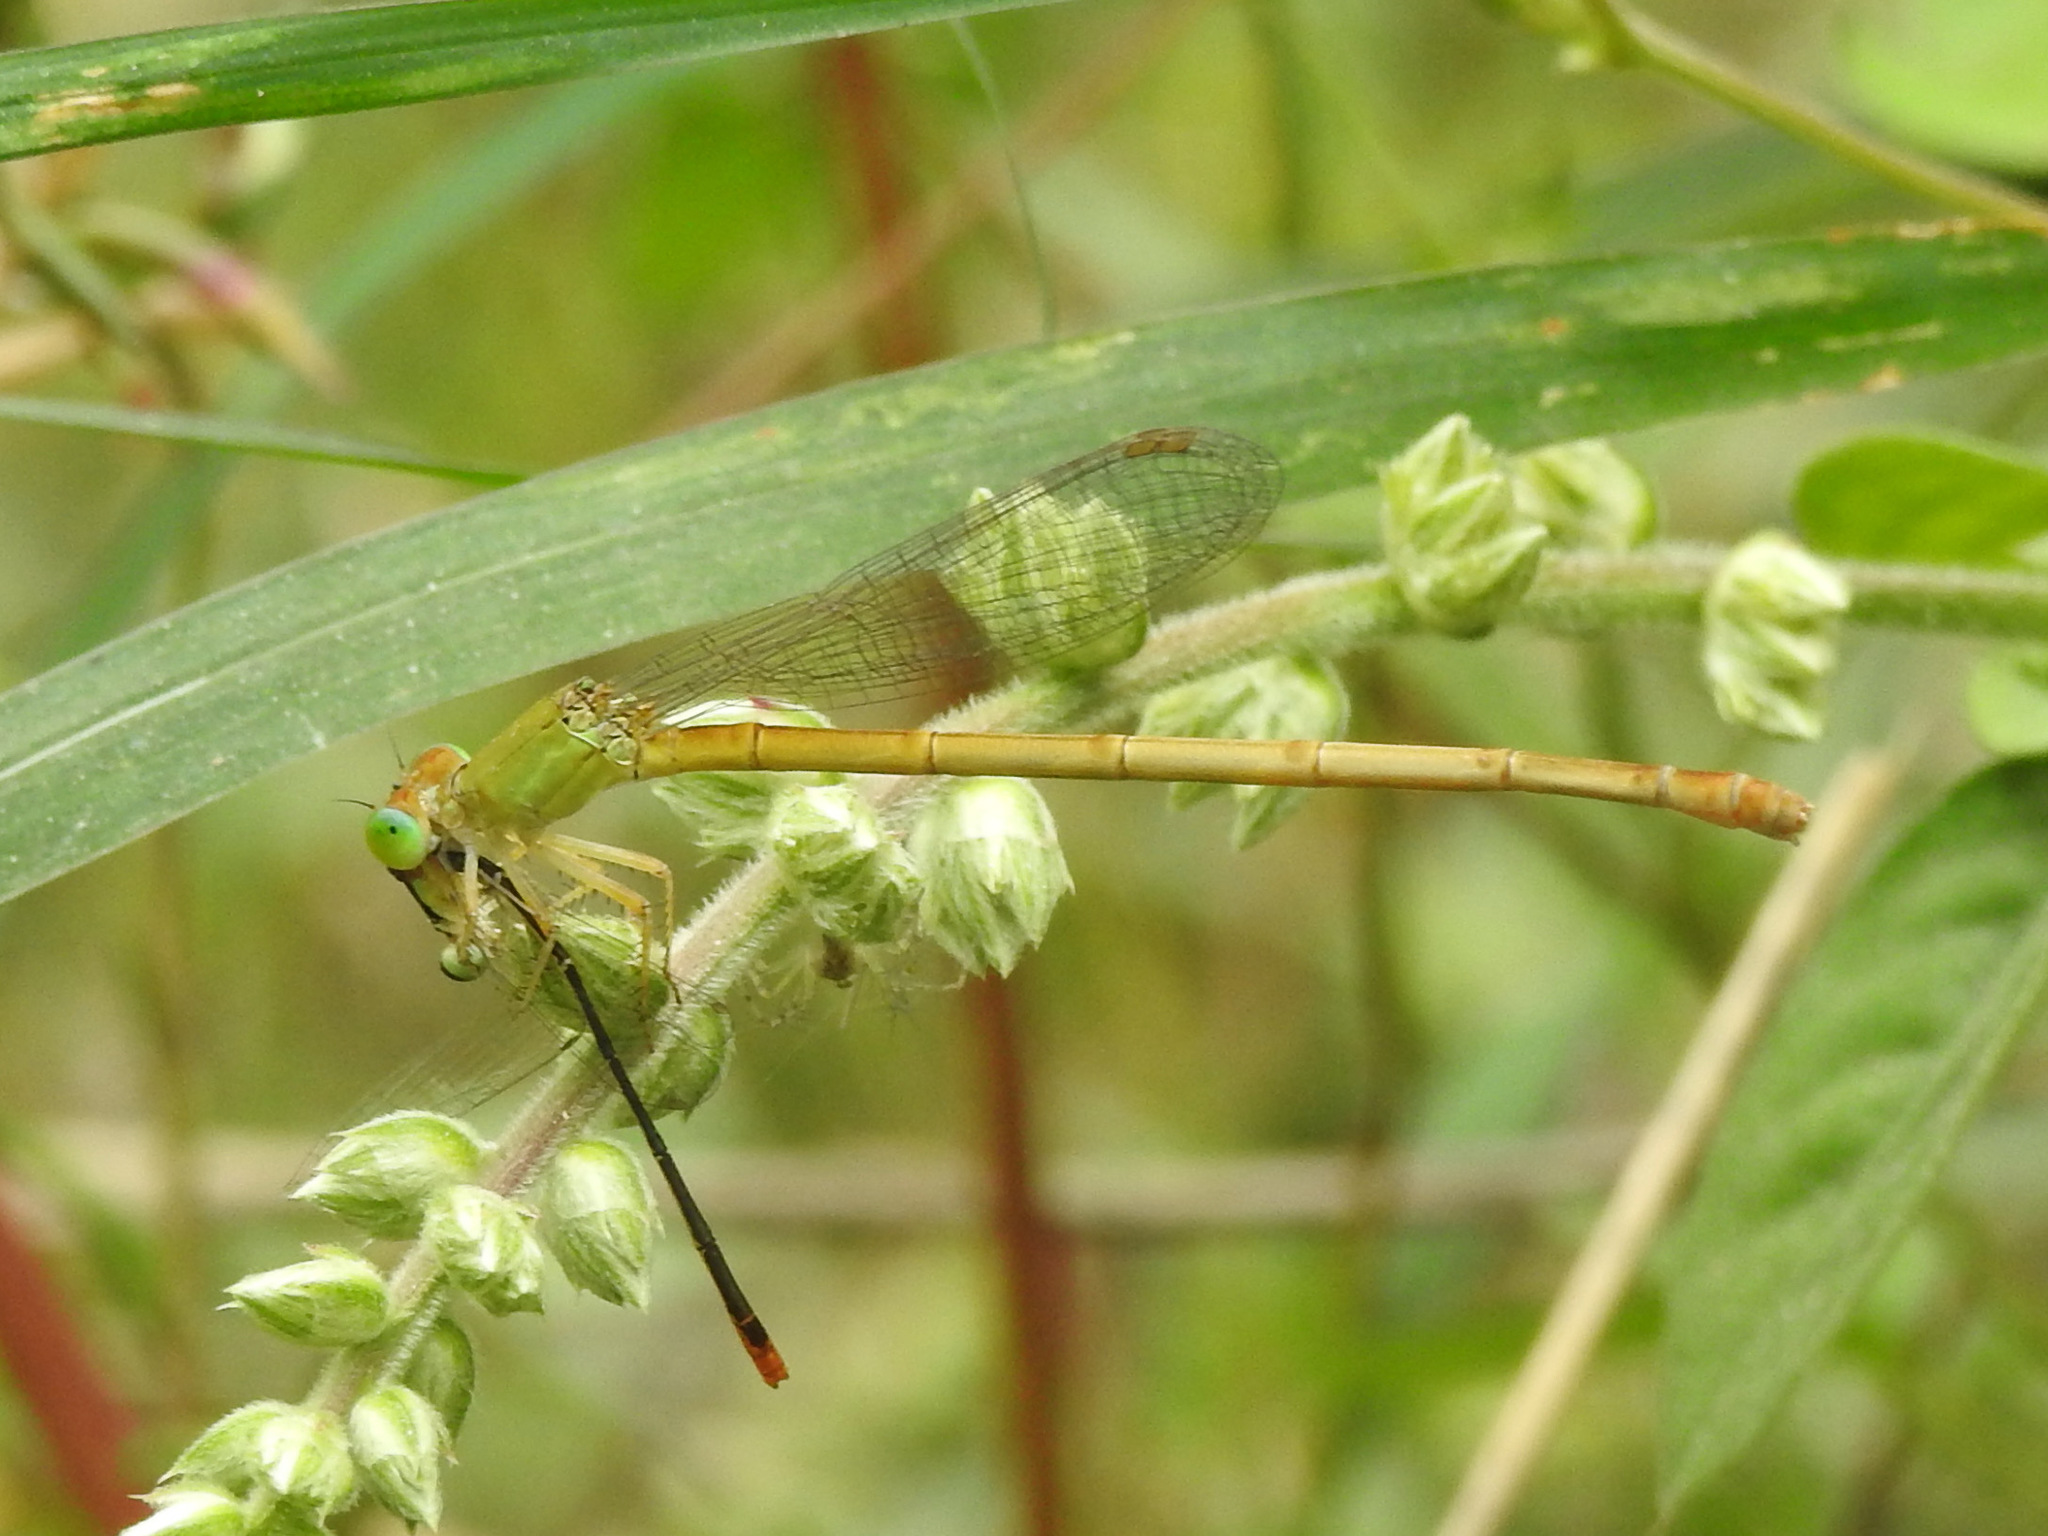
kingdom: Animalia
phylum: Arthropoda
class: Insecta
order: Odonata
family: Coenagrionidae
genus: Ceriagrion
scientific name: Ceriagrion coromandelianum
